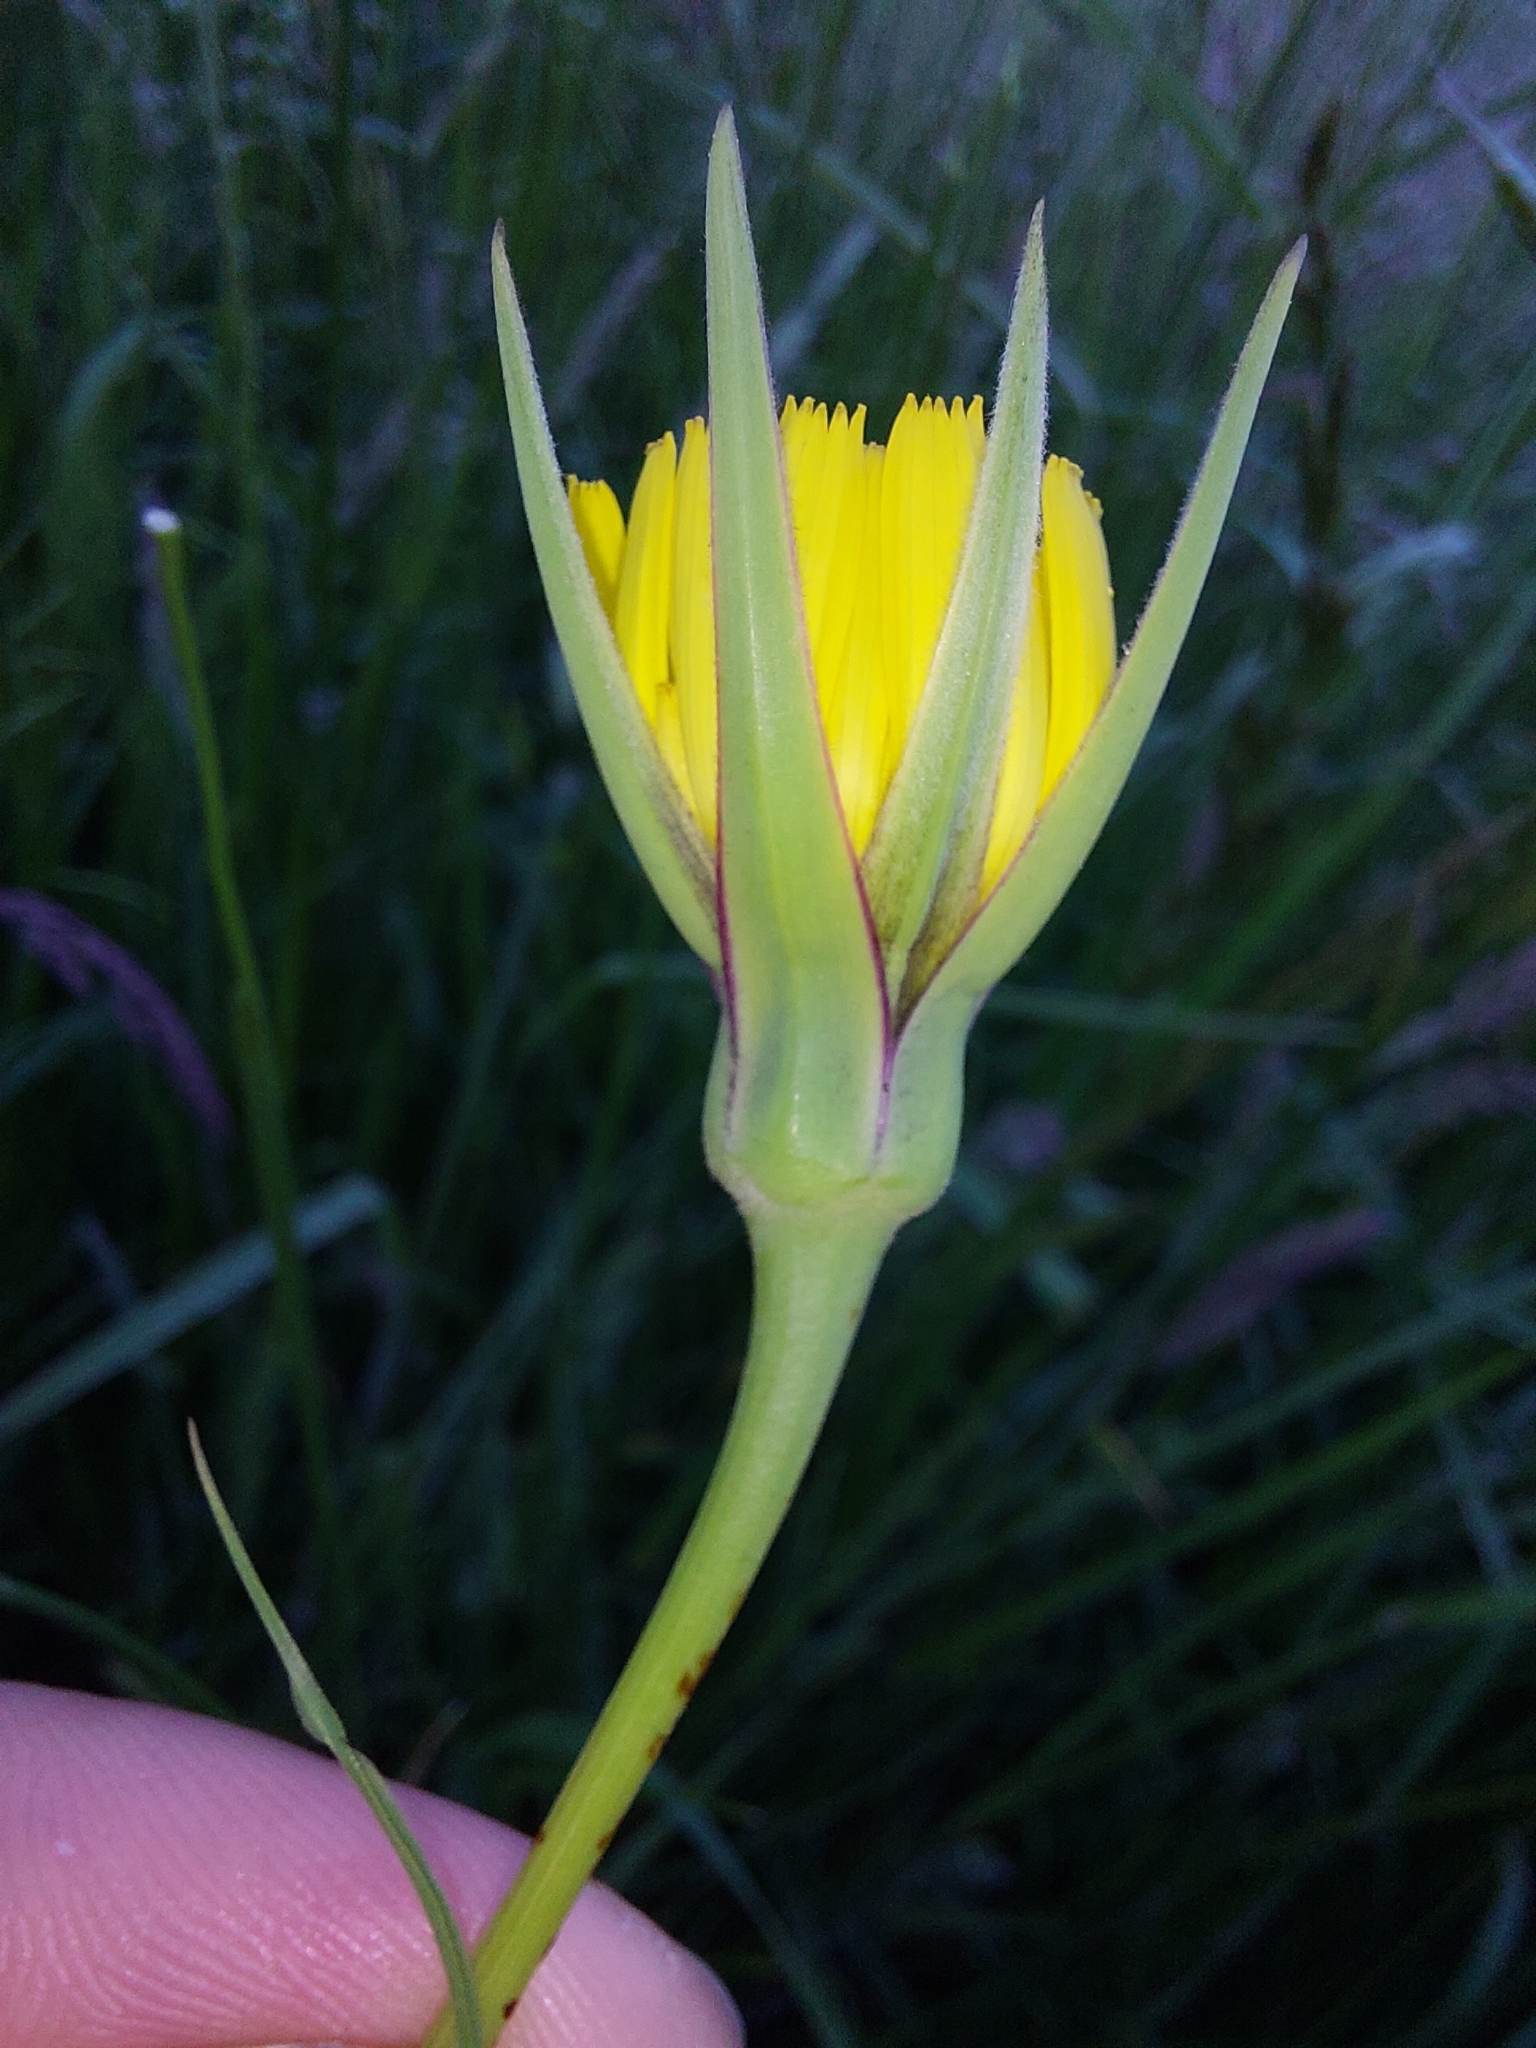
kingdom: Plantae
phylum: Tracheophyta
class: Magnoliopsida
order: Asterales
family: Asteraceae
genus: Tragopogon
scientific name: Tragopogon pratensis
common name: Goat's-beard
